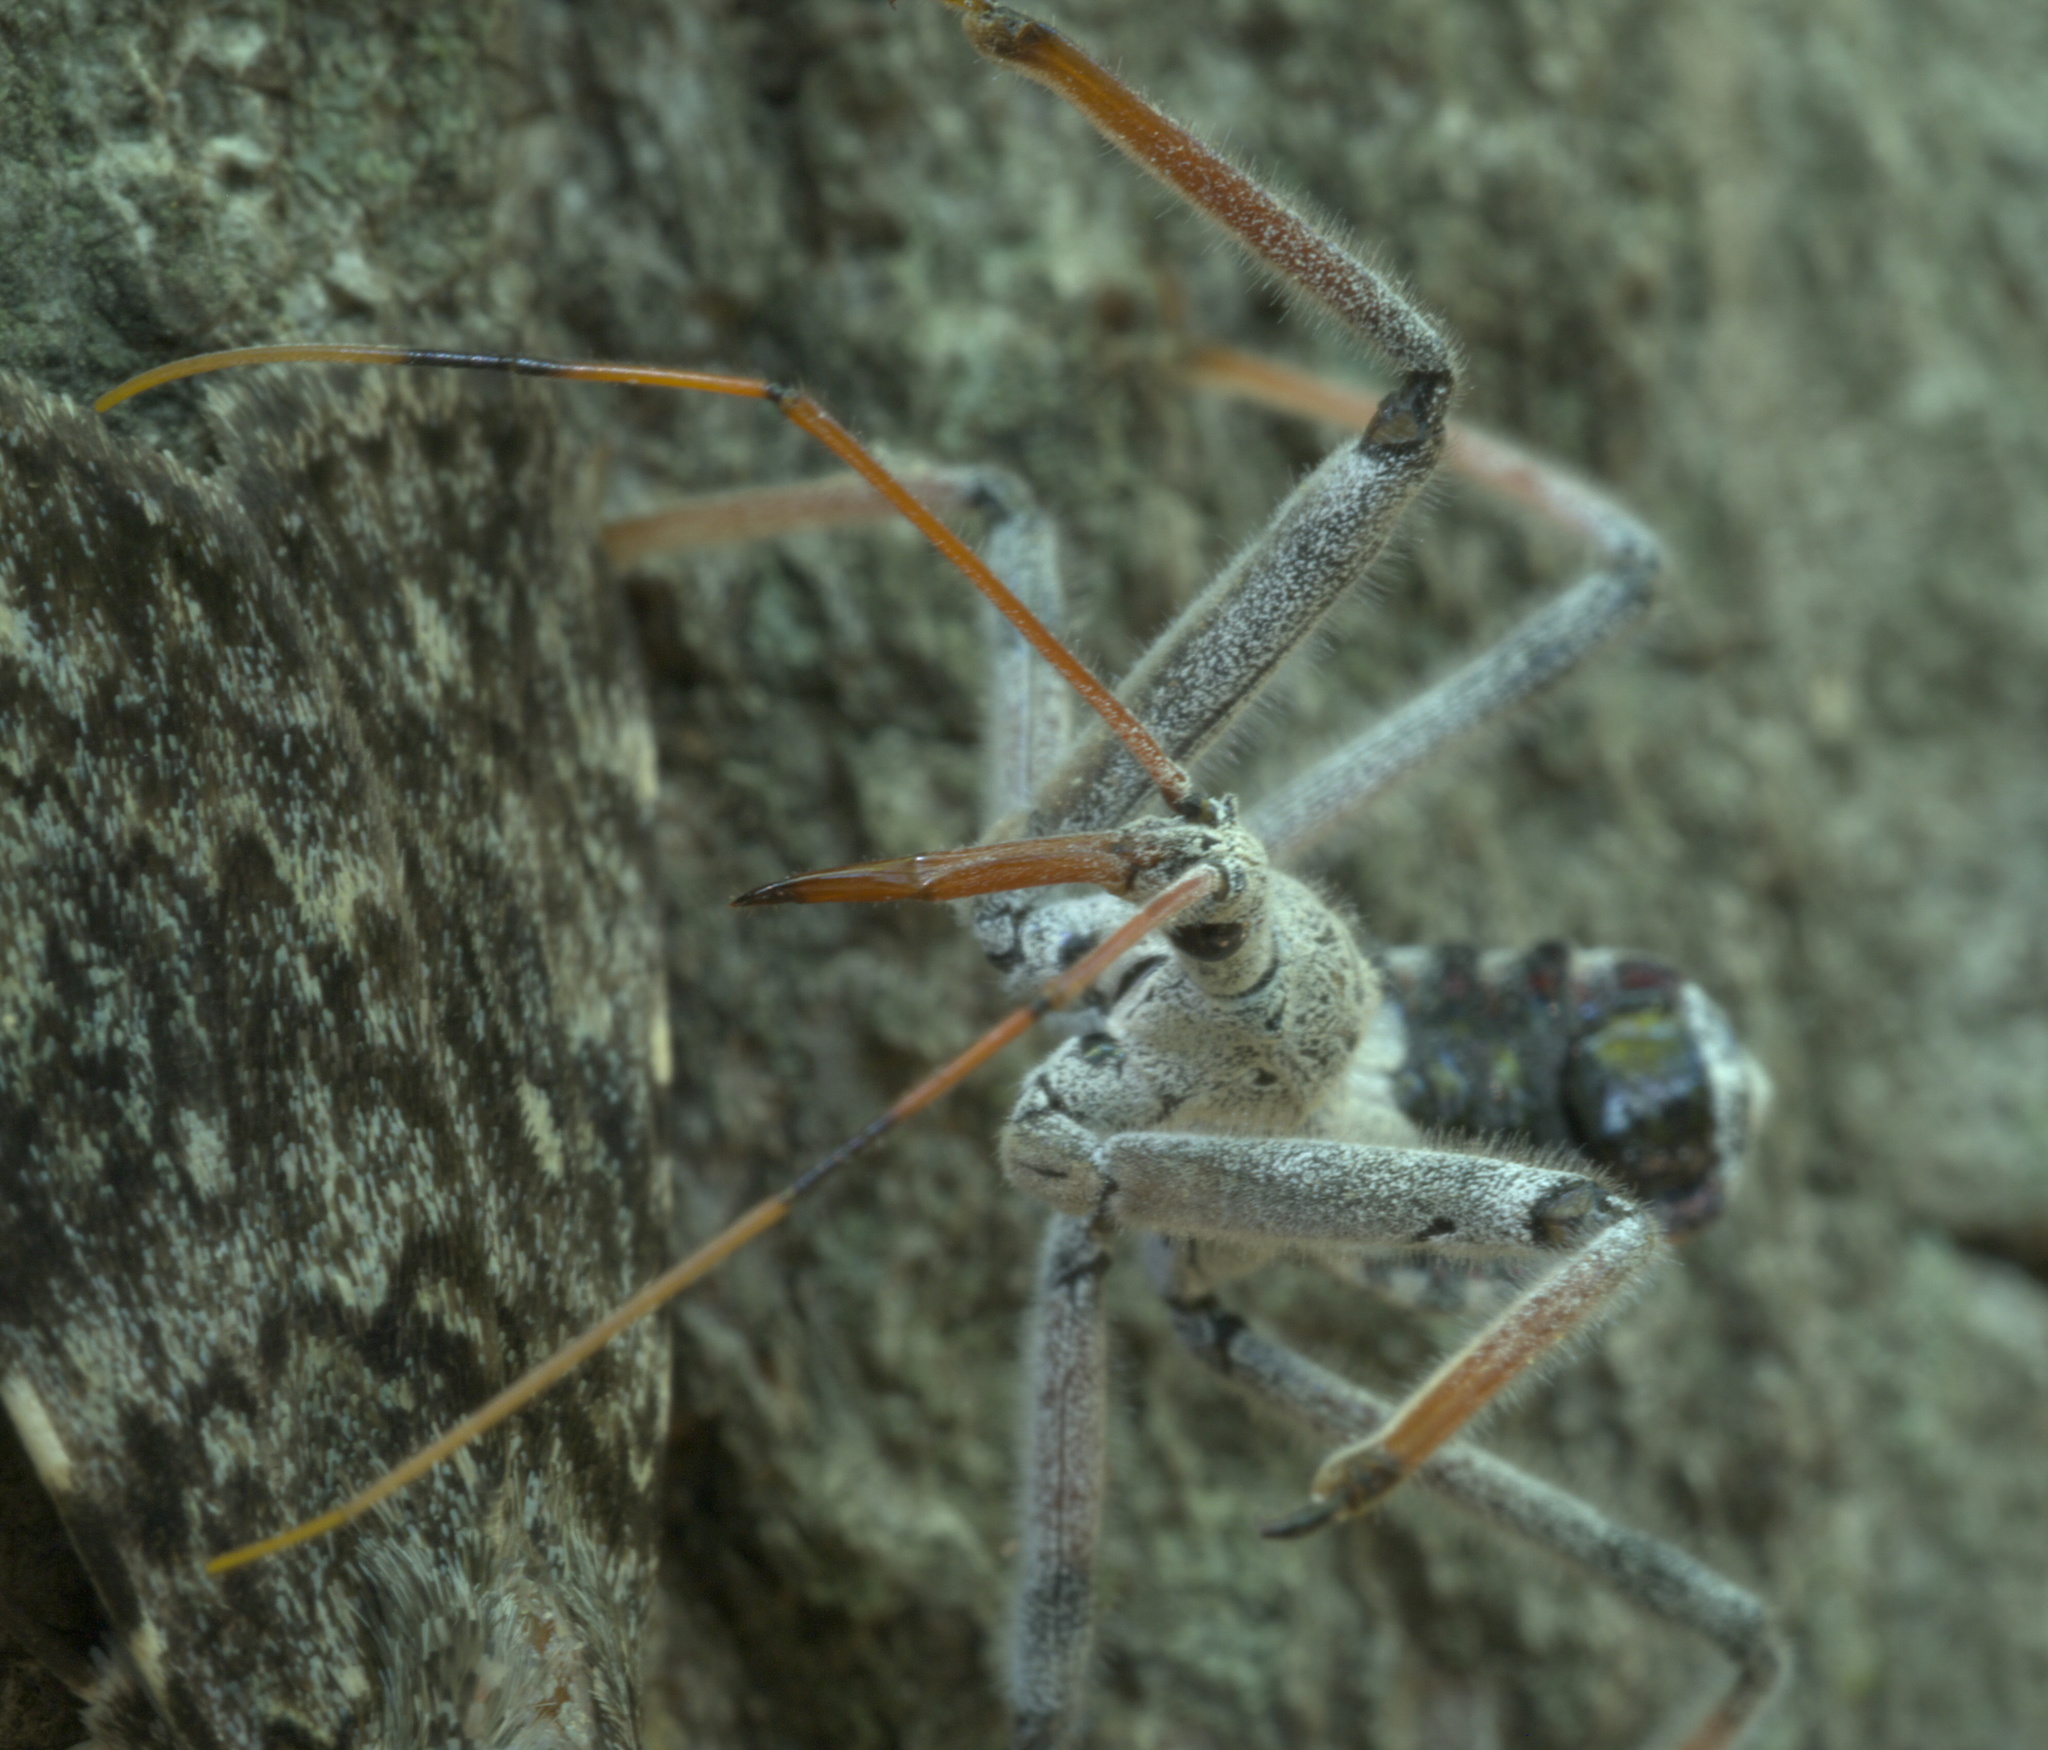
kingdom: Animalia
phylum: Arthropoda
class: Insecta
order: Hemiptera
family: Reduviidae
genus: Arilus
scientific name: Arilus cristatus
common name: North american wheel bug
